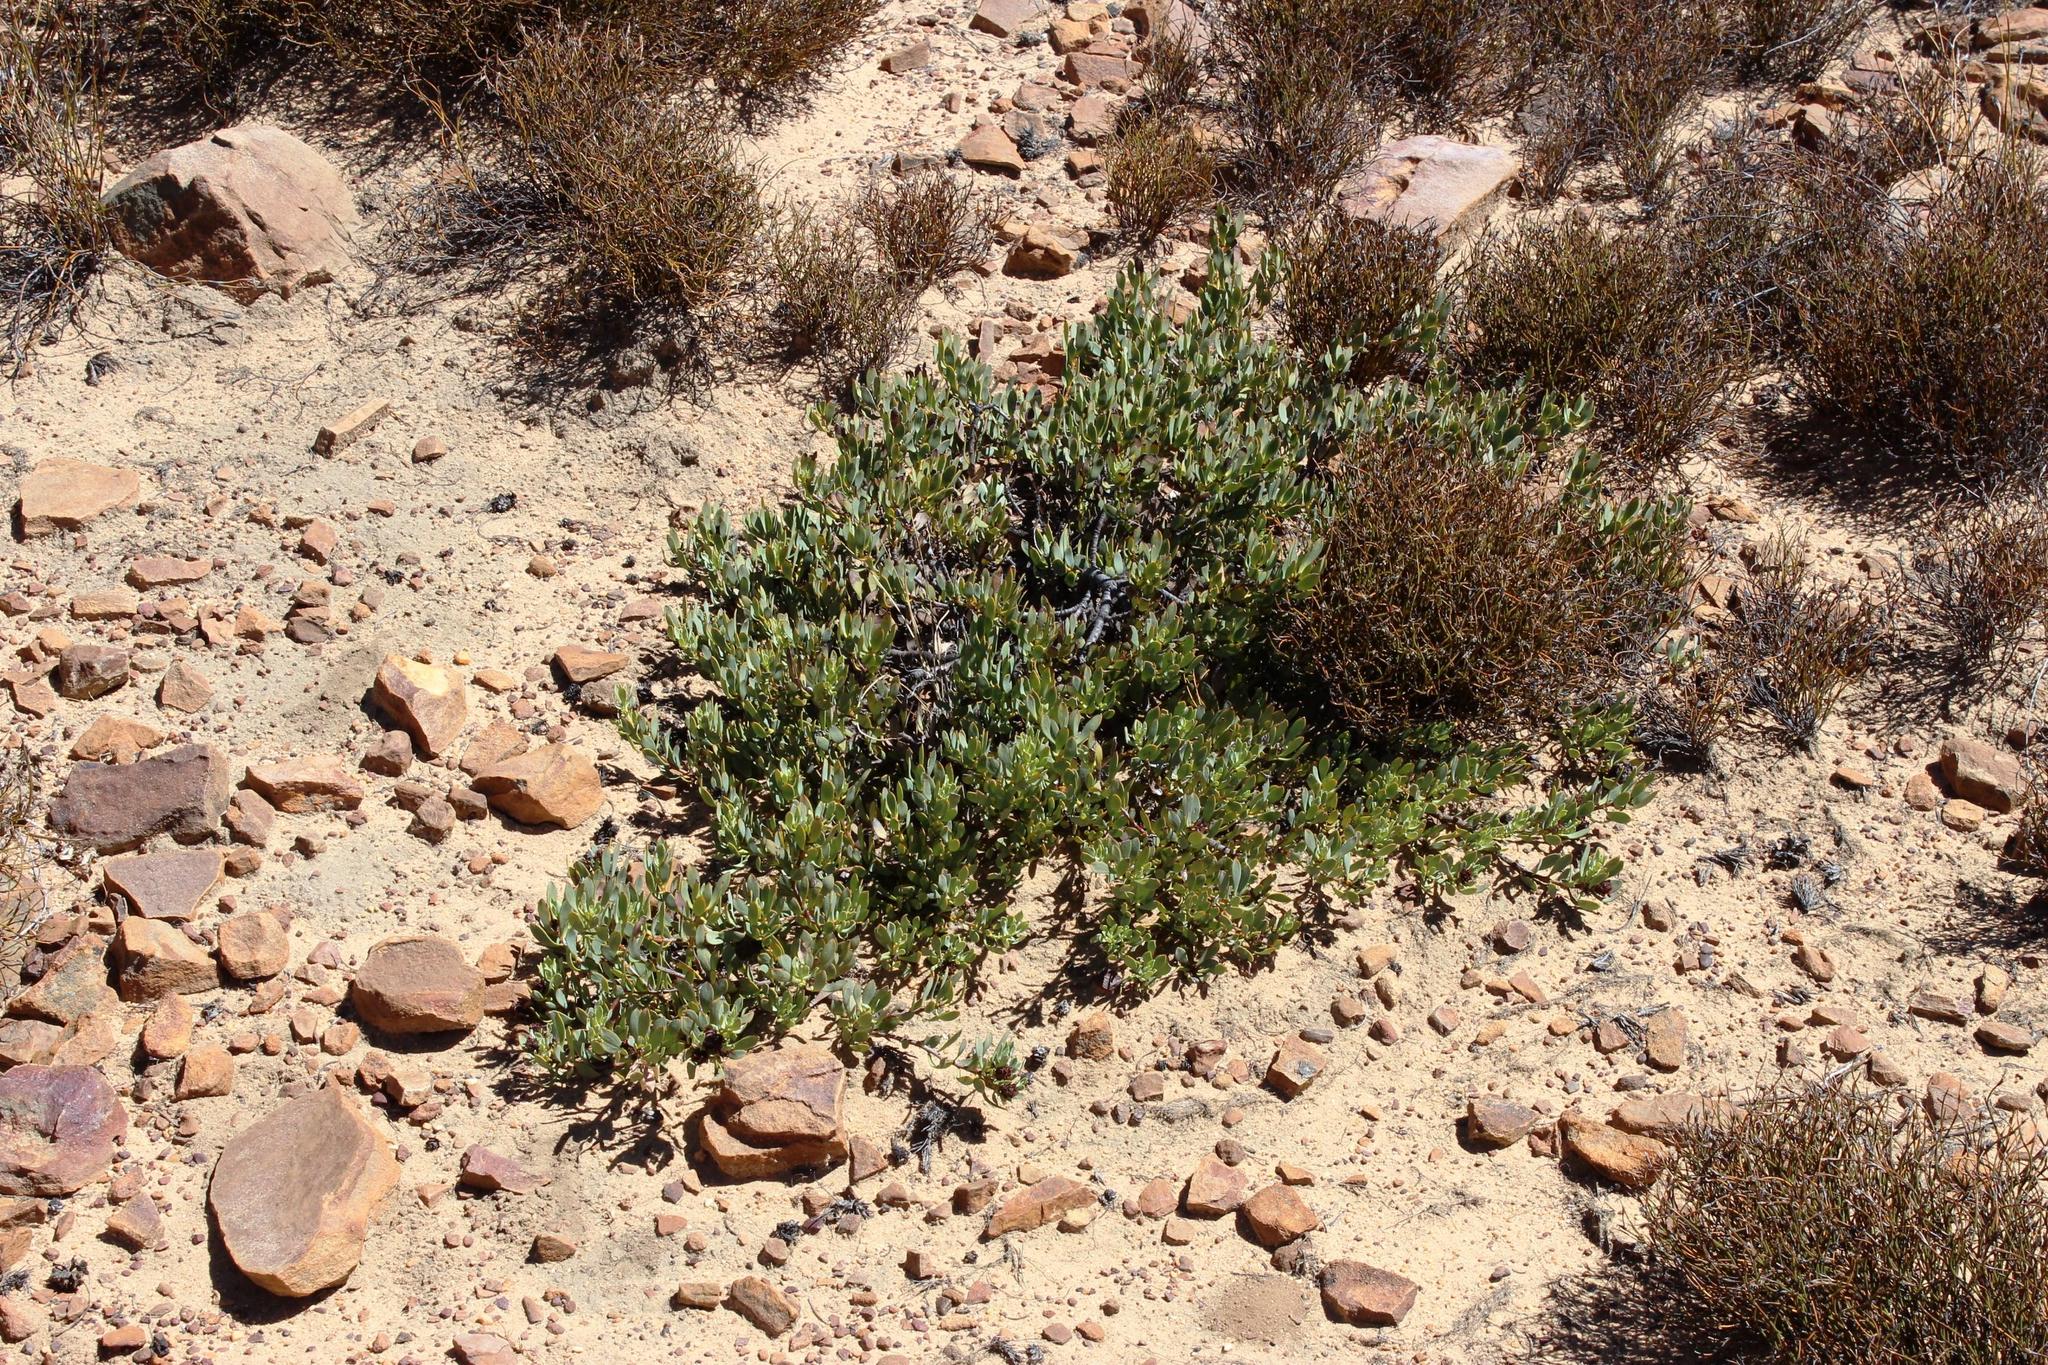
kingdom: Plantae
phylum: Tracheophyta
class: Magnoliopsida
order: Proteales
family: Proteaceae
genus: Leucadendron
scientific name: Leucadendron glaberrimum
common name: Common oily conebush
